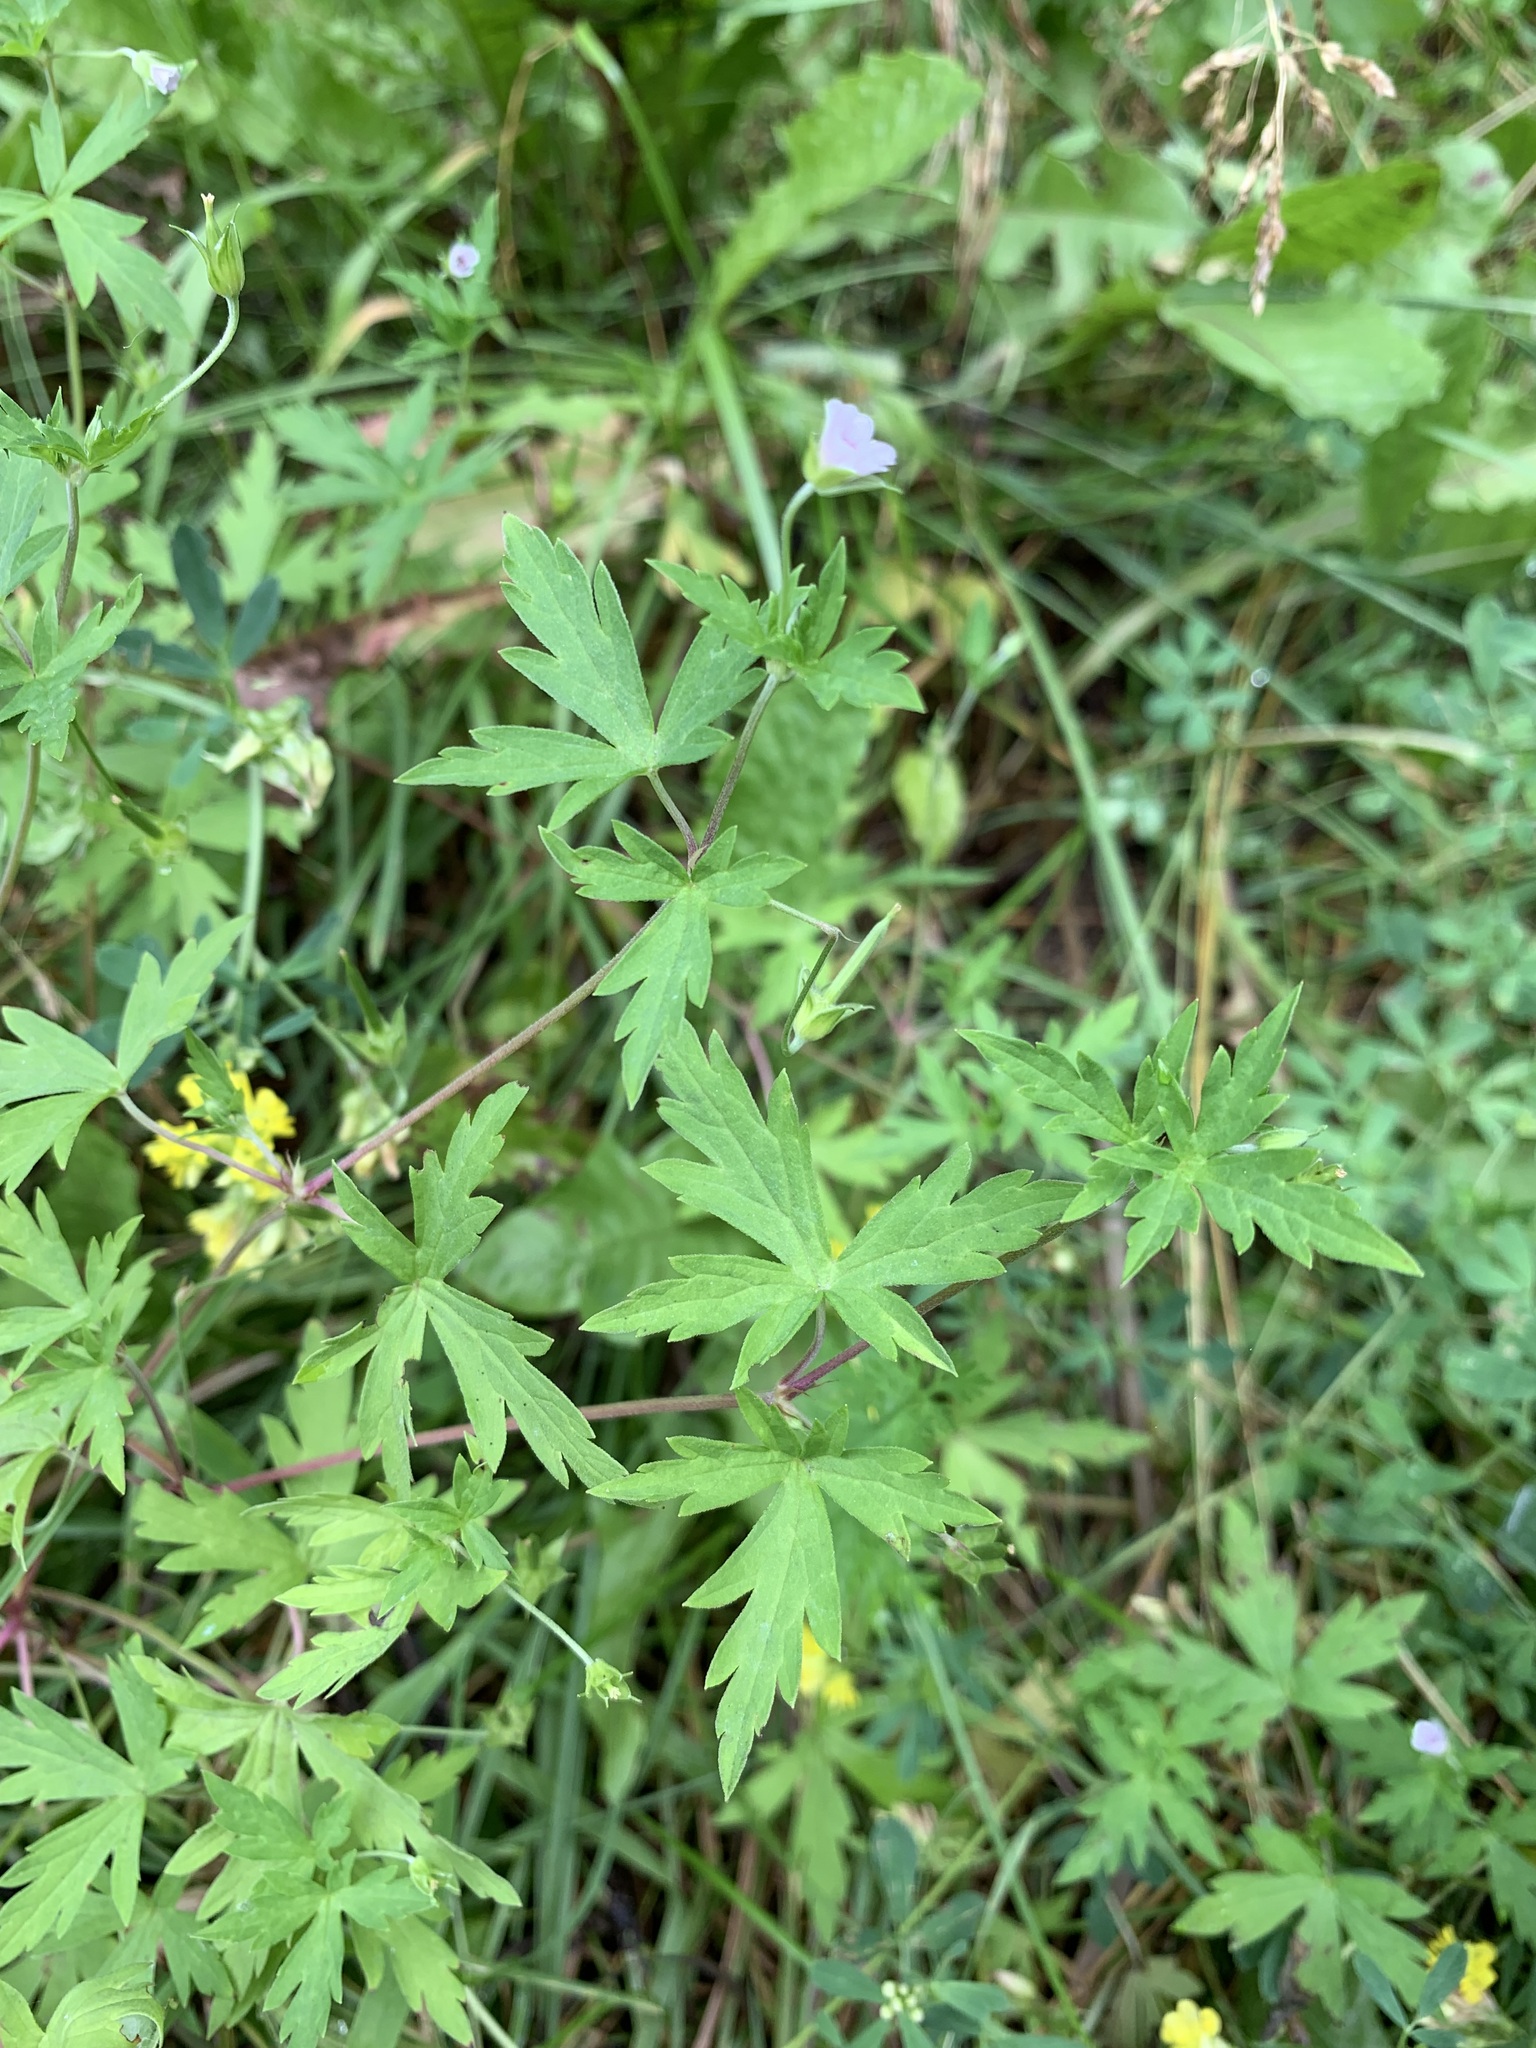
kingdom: Plantae
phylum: Tracheophyta
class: Magnoliopsida
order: Geraniales
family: Geraniaceae
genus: Geranium
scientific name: Geranium sibiricum
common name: Siberian crane's-bill
